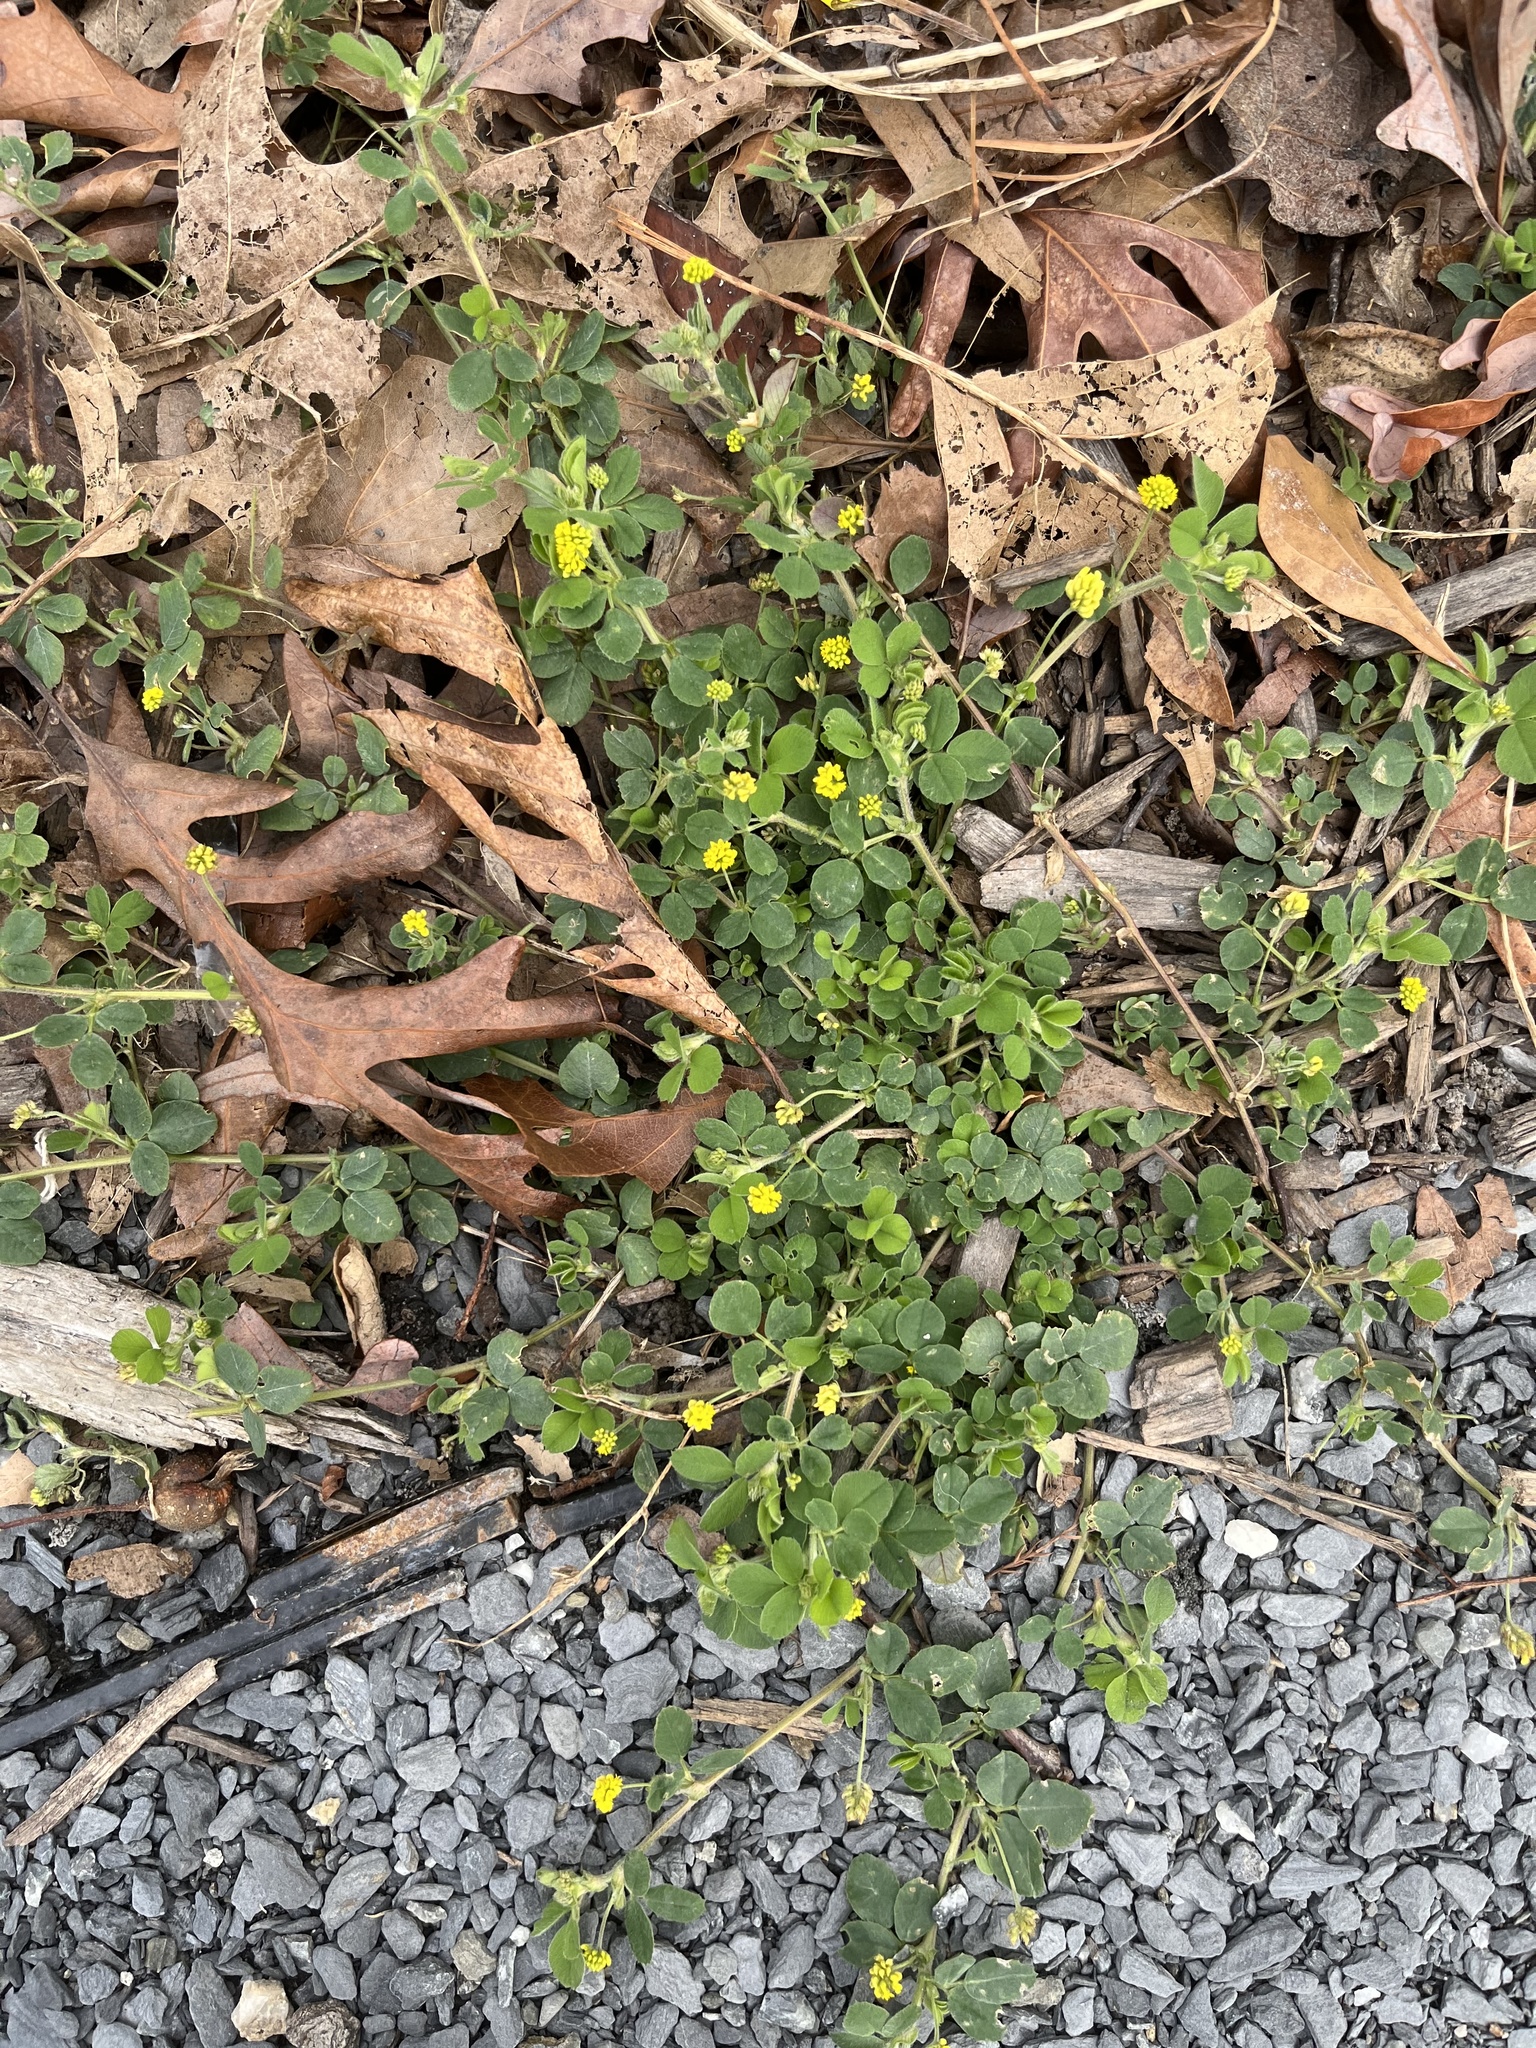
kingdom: Plantae
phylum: Tracheophyta
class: Magnoliopsida
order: Fabales
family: Fabaceae
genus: Medicago
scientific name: Medicago lupulina
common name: Black medick
